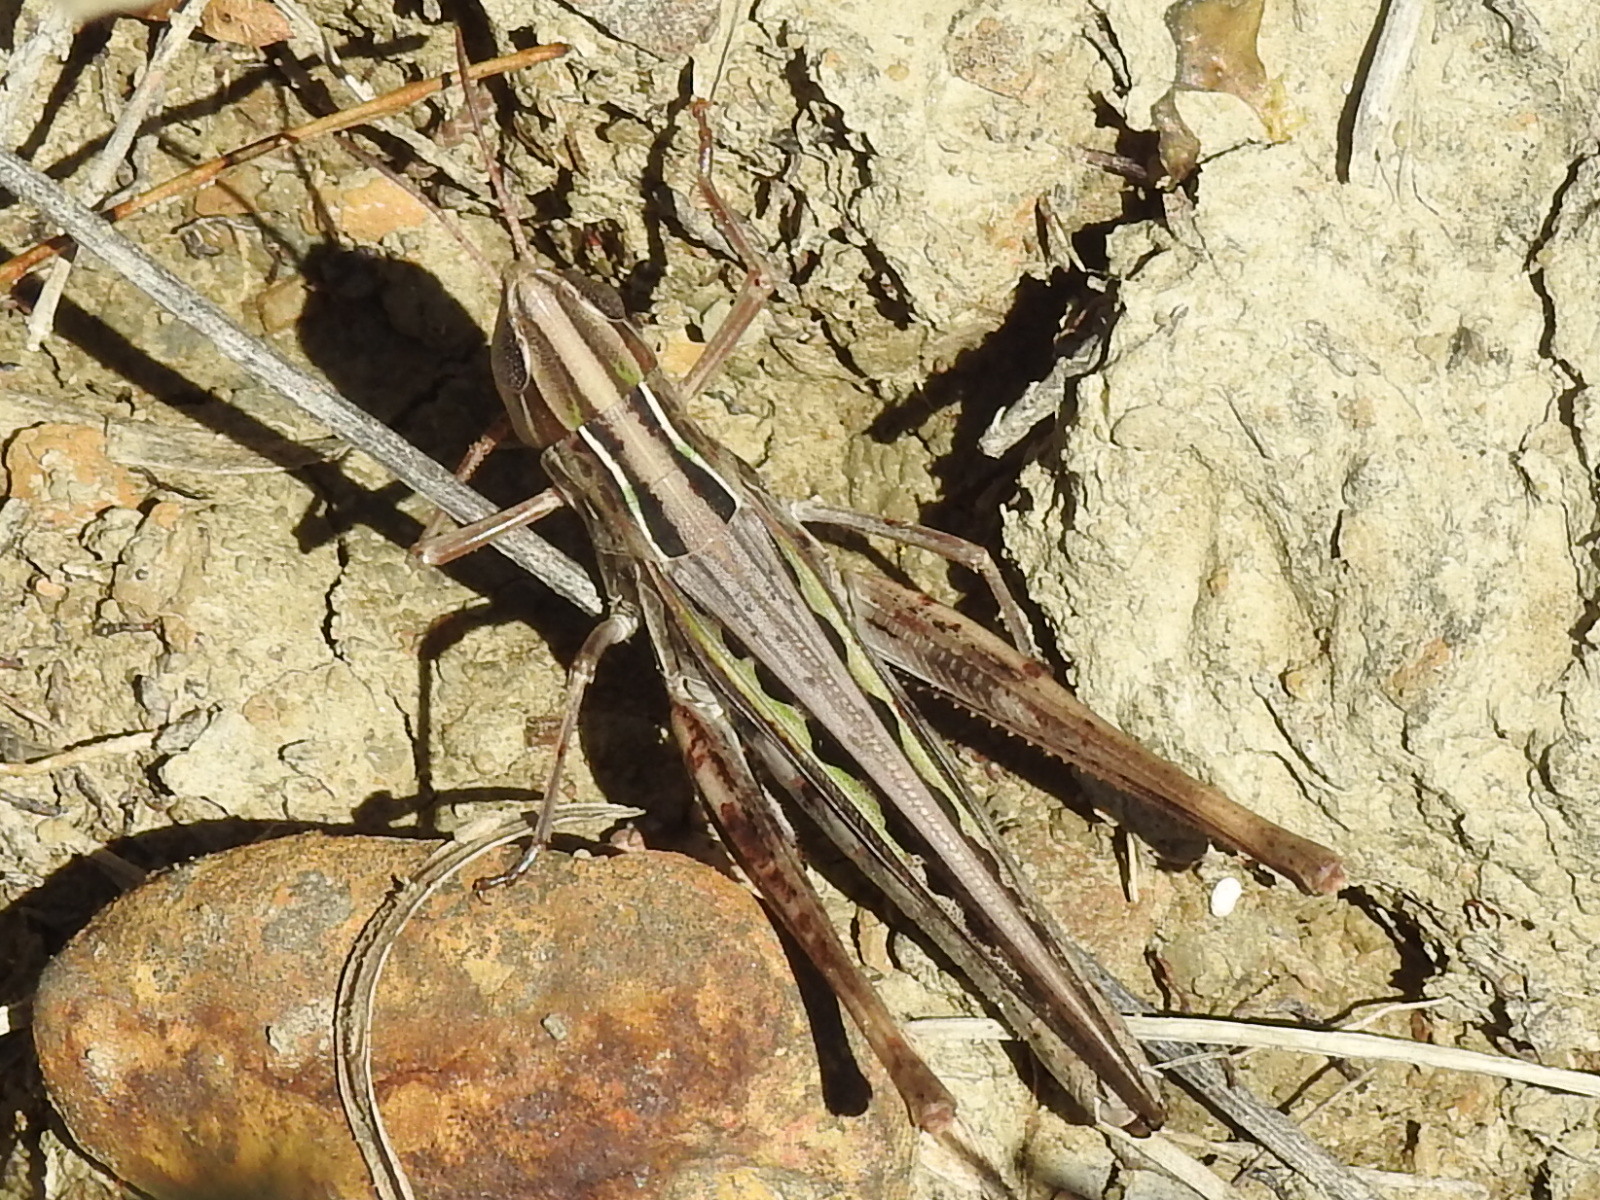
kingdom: Animalia
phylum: Arthropoda
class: Insecta
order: Orthoptera
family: Acrididae
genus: Syrbula
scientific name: Syrbula admirabilis
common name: Handsome grasshopper
